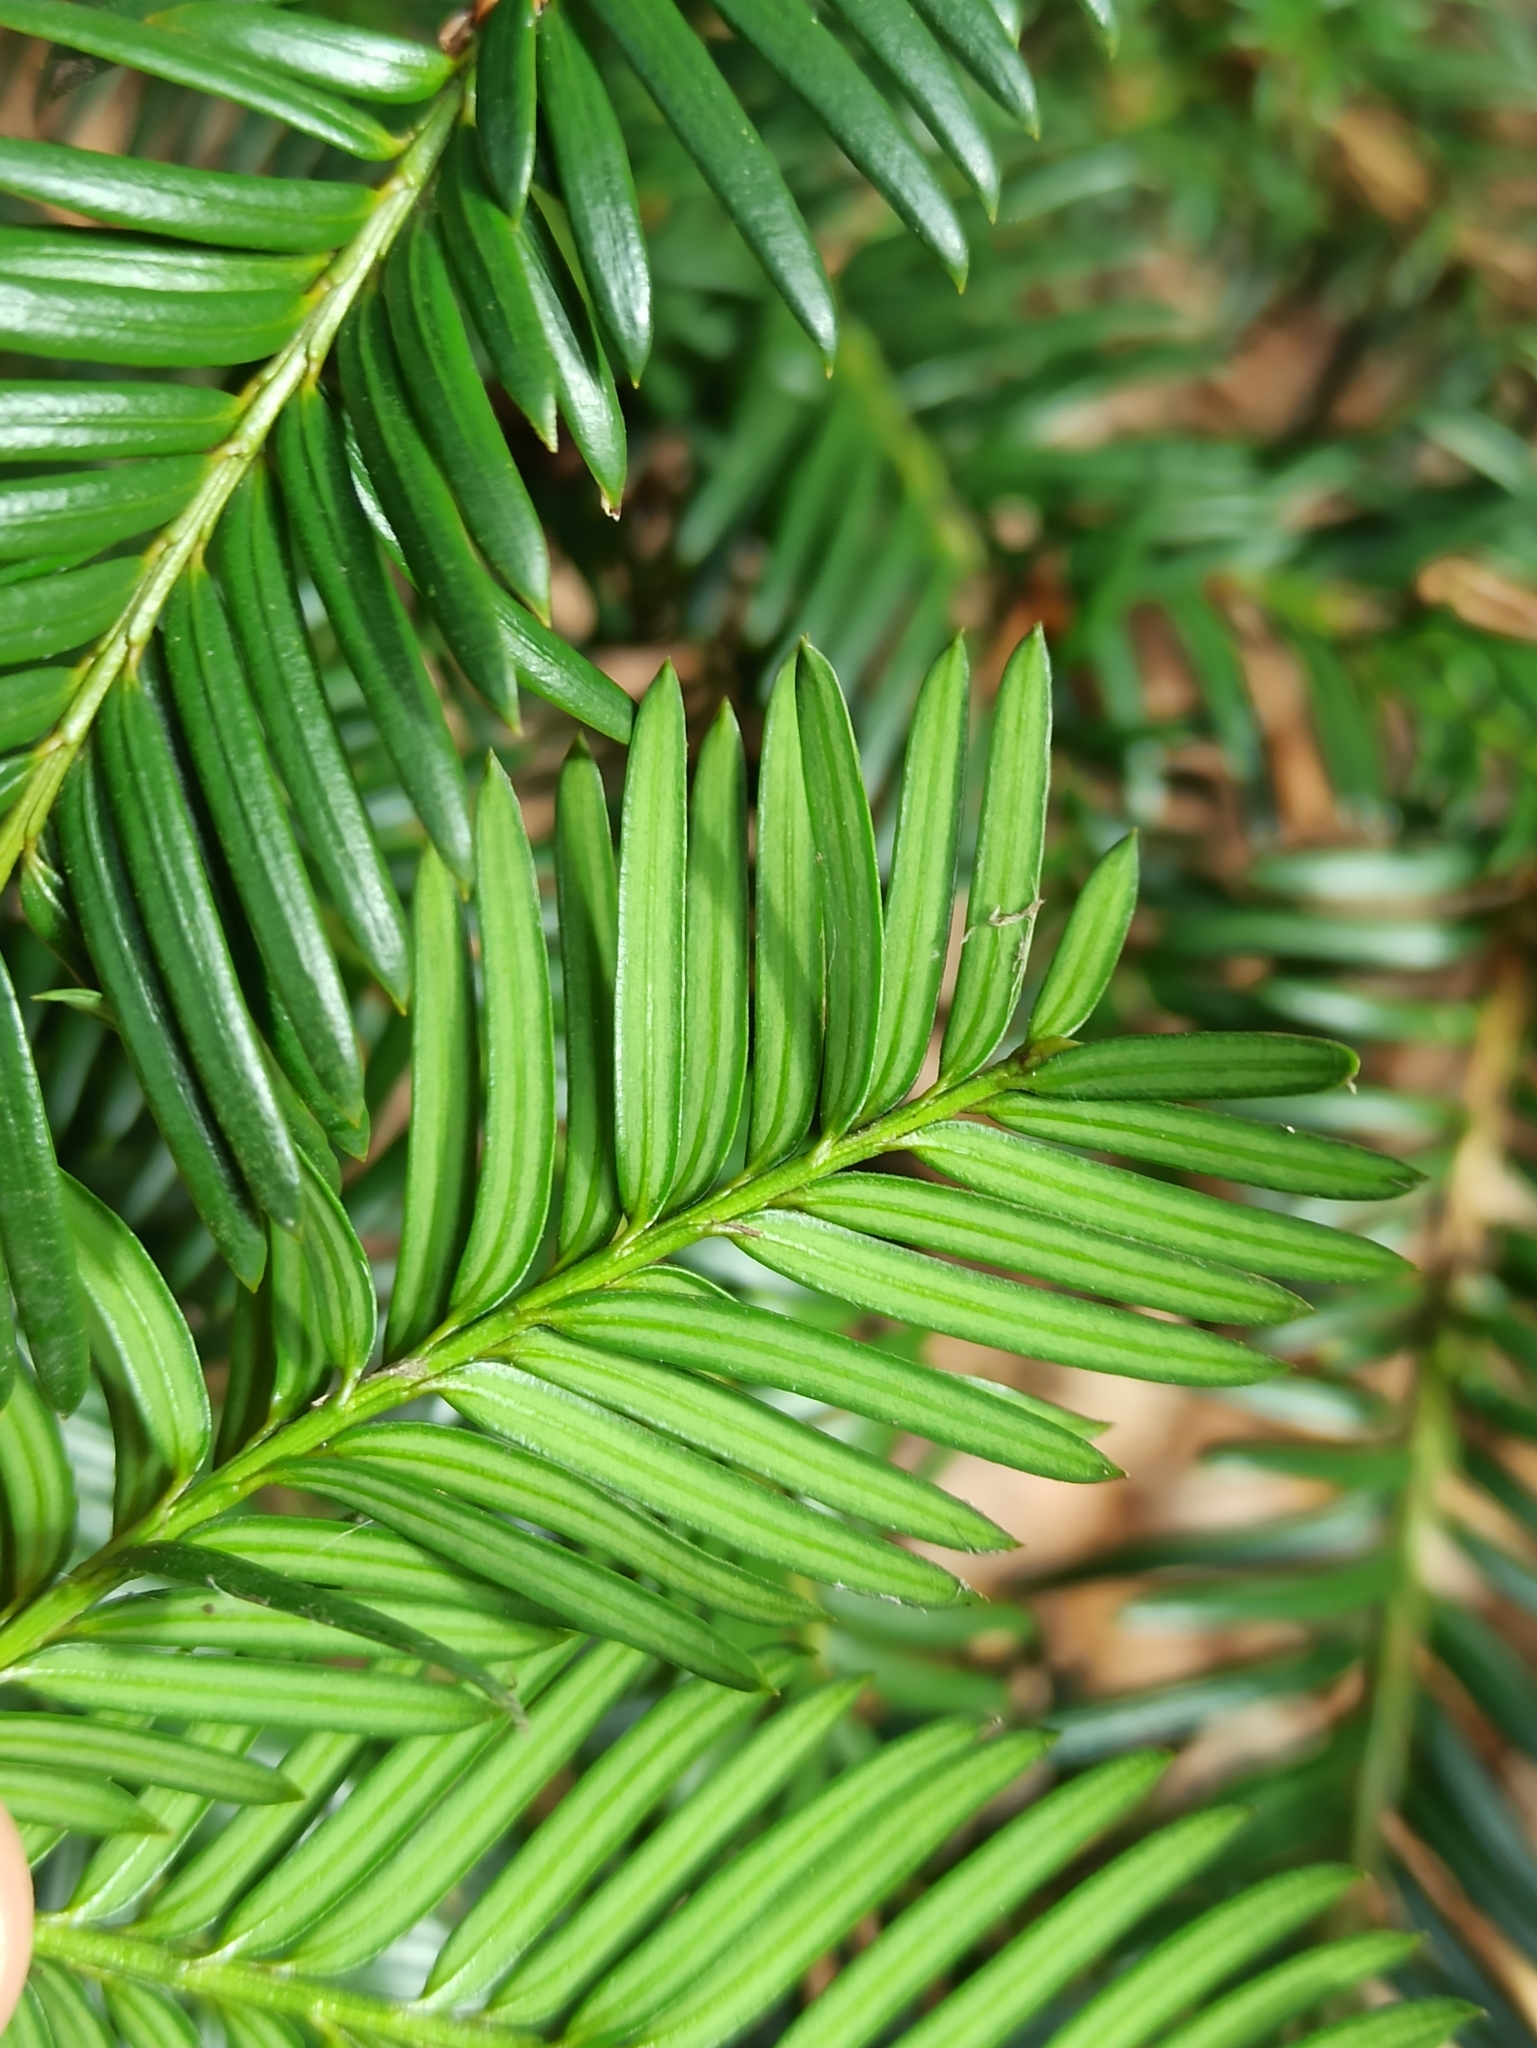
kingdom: Plantae
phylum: Tracheophyta
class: Pinopsida
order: Pinales
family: Taxaceae
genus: Taxus
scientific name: Taxus baccata
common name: Yew
